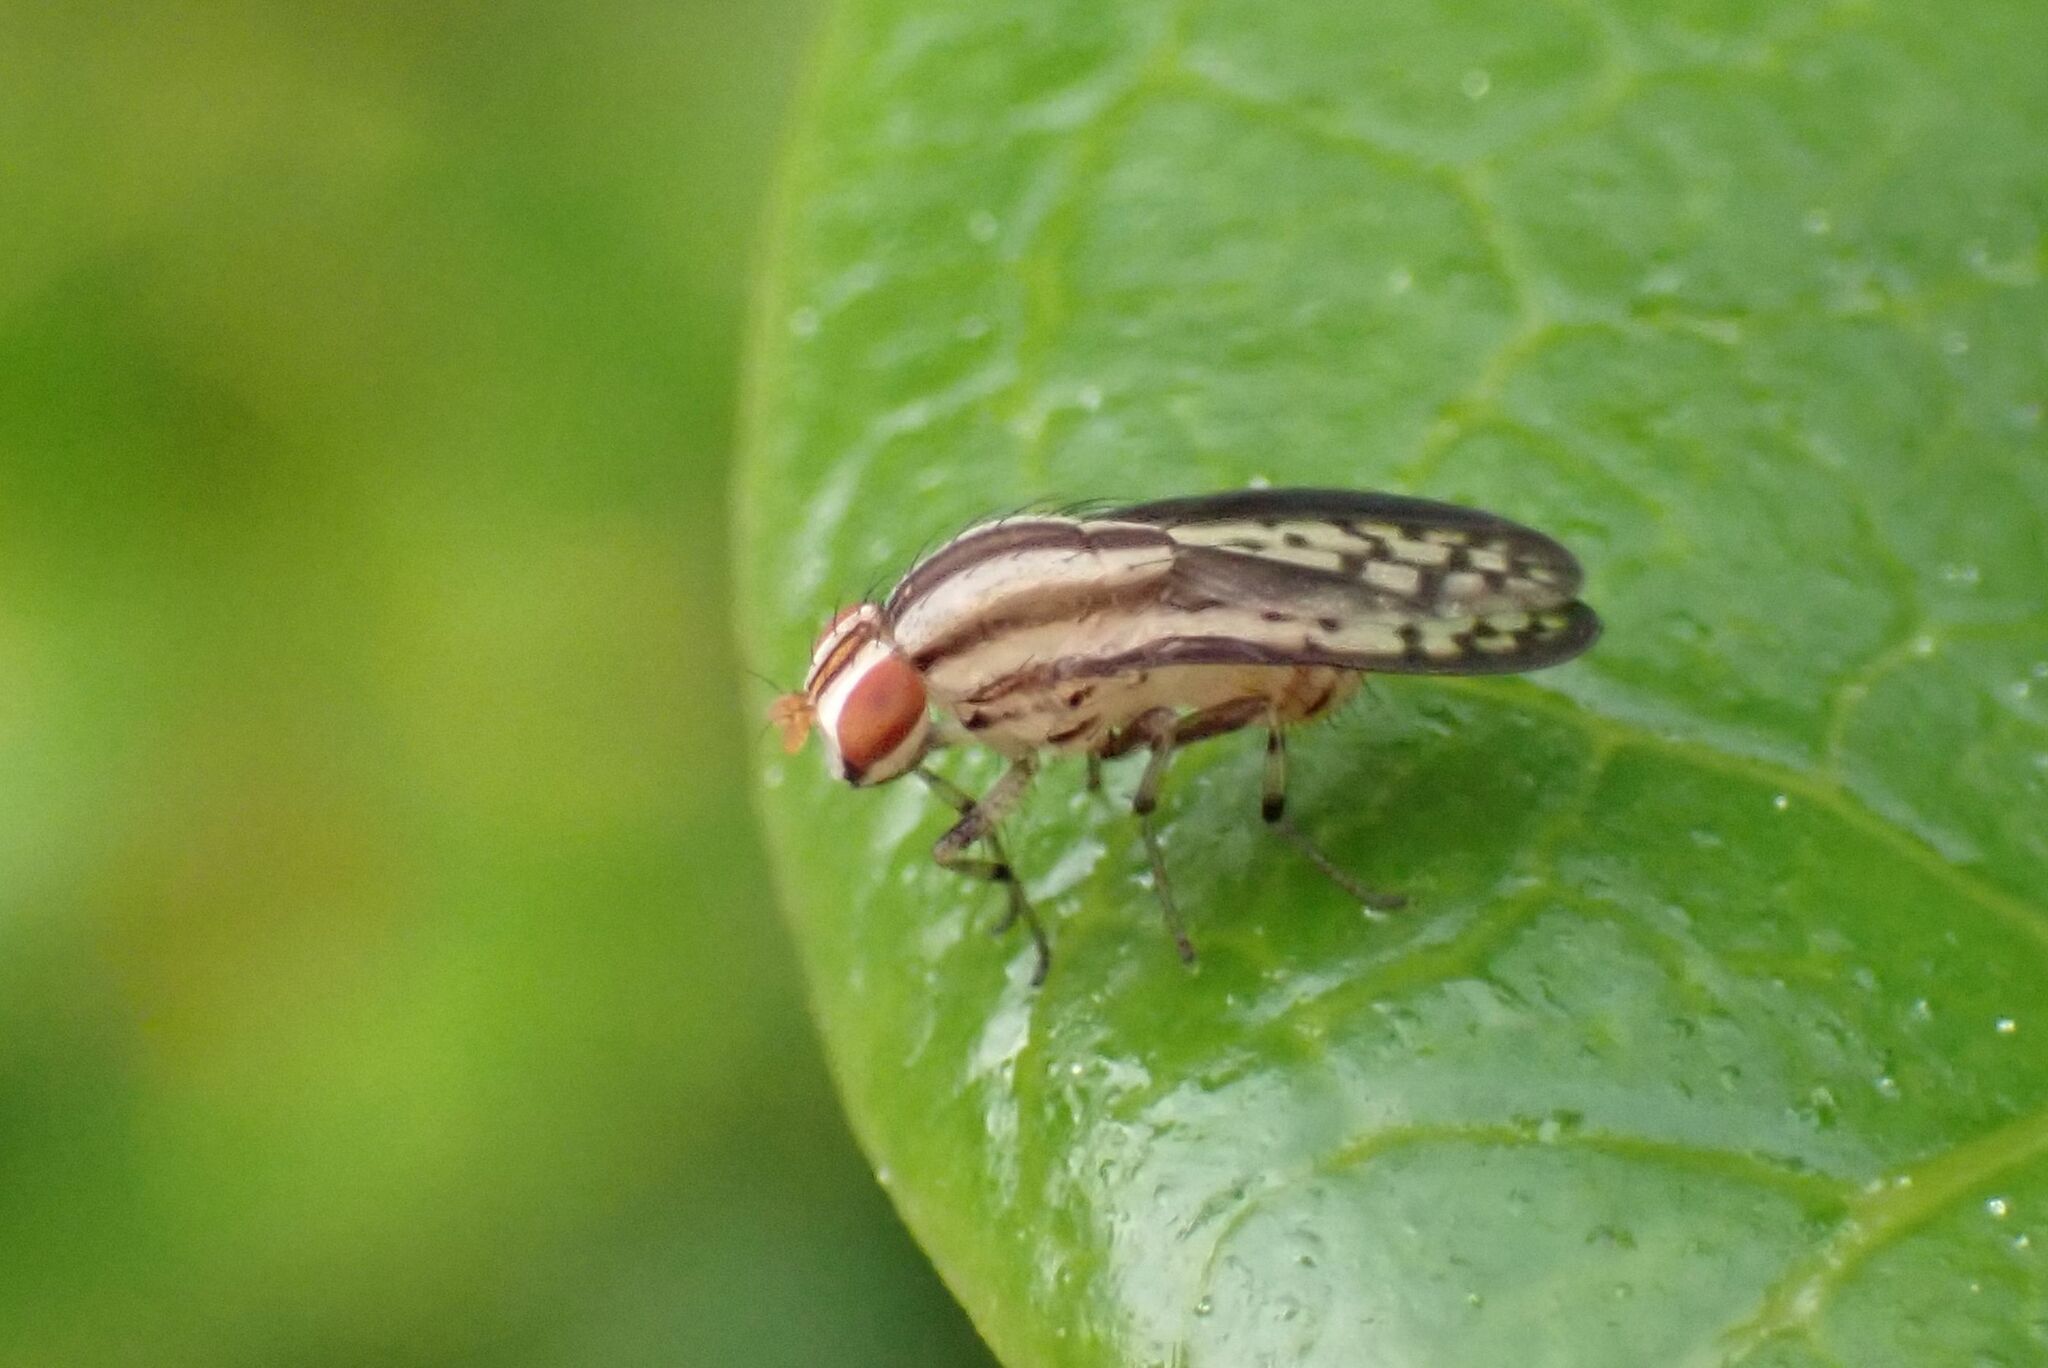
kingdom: Animalia
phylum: Arthropoda
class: Insecta
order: Diptera
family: Lauxaniidae
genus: Sapromyza
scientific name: Sapromyza guttulata
